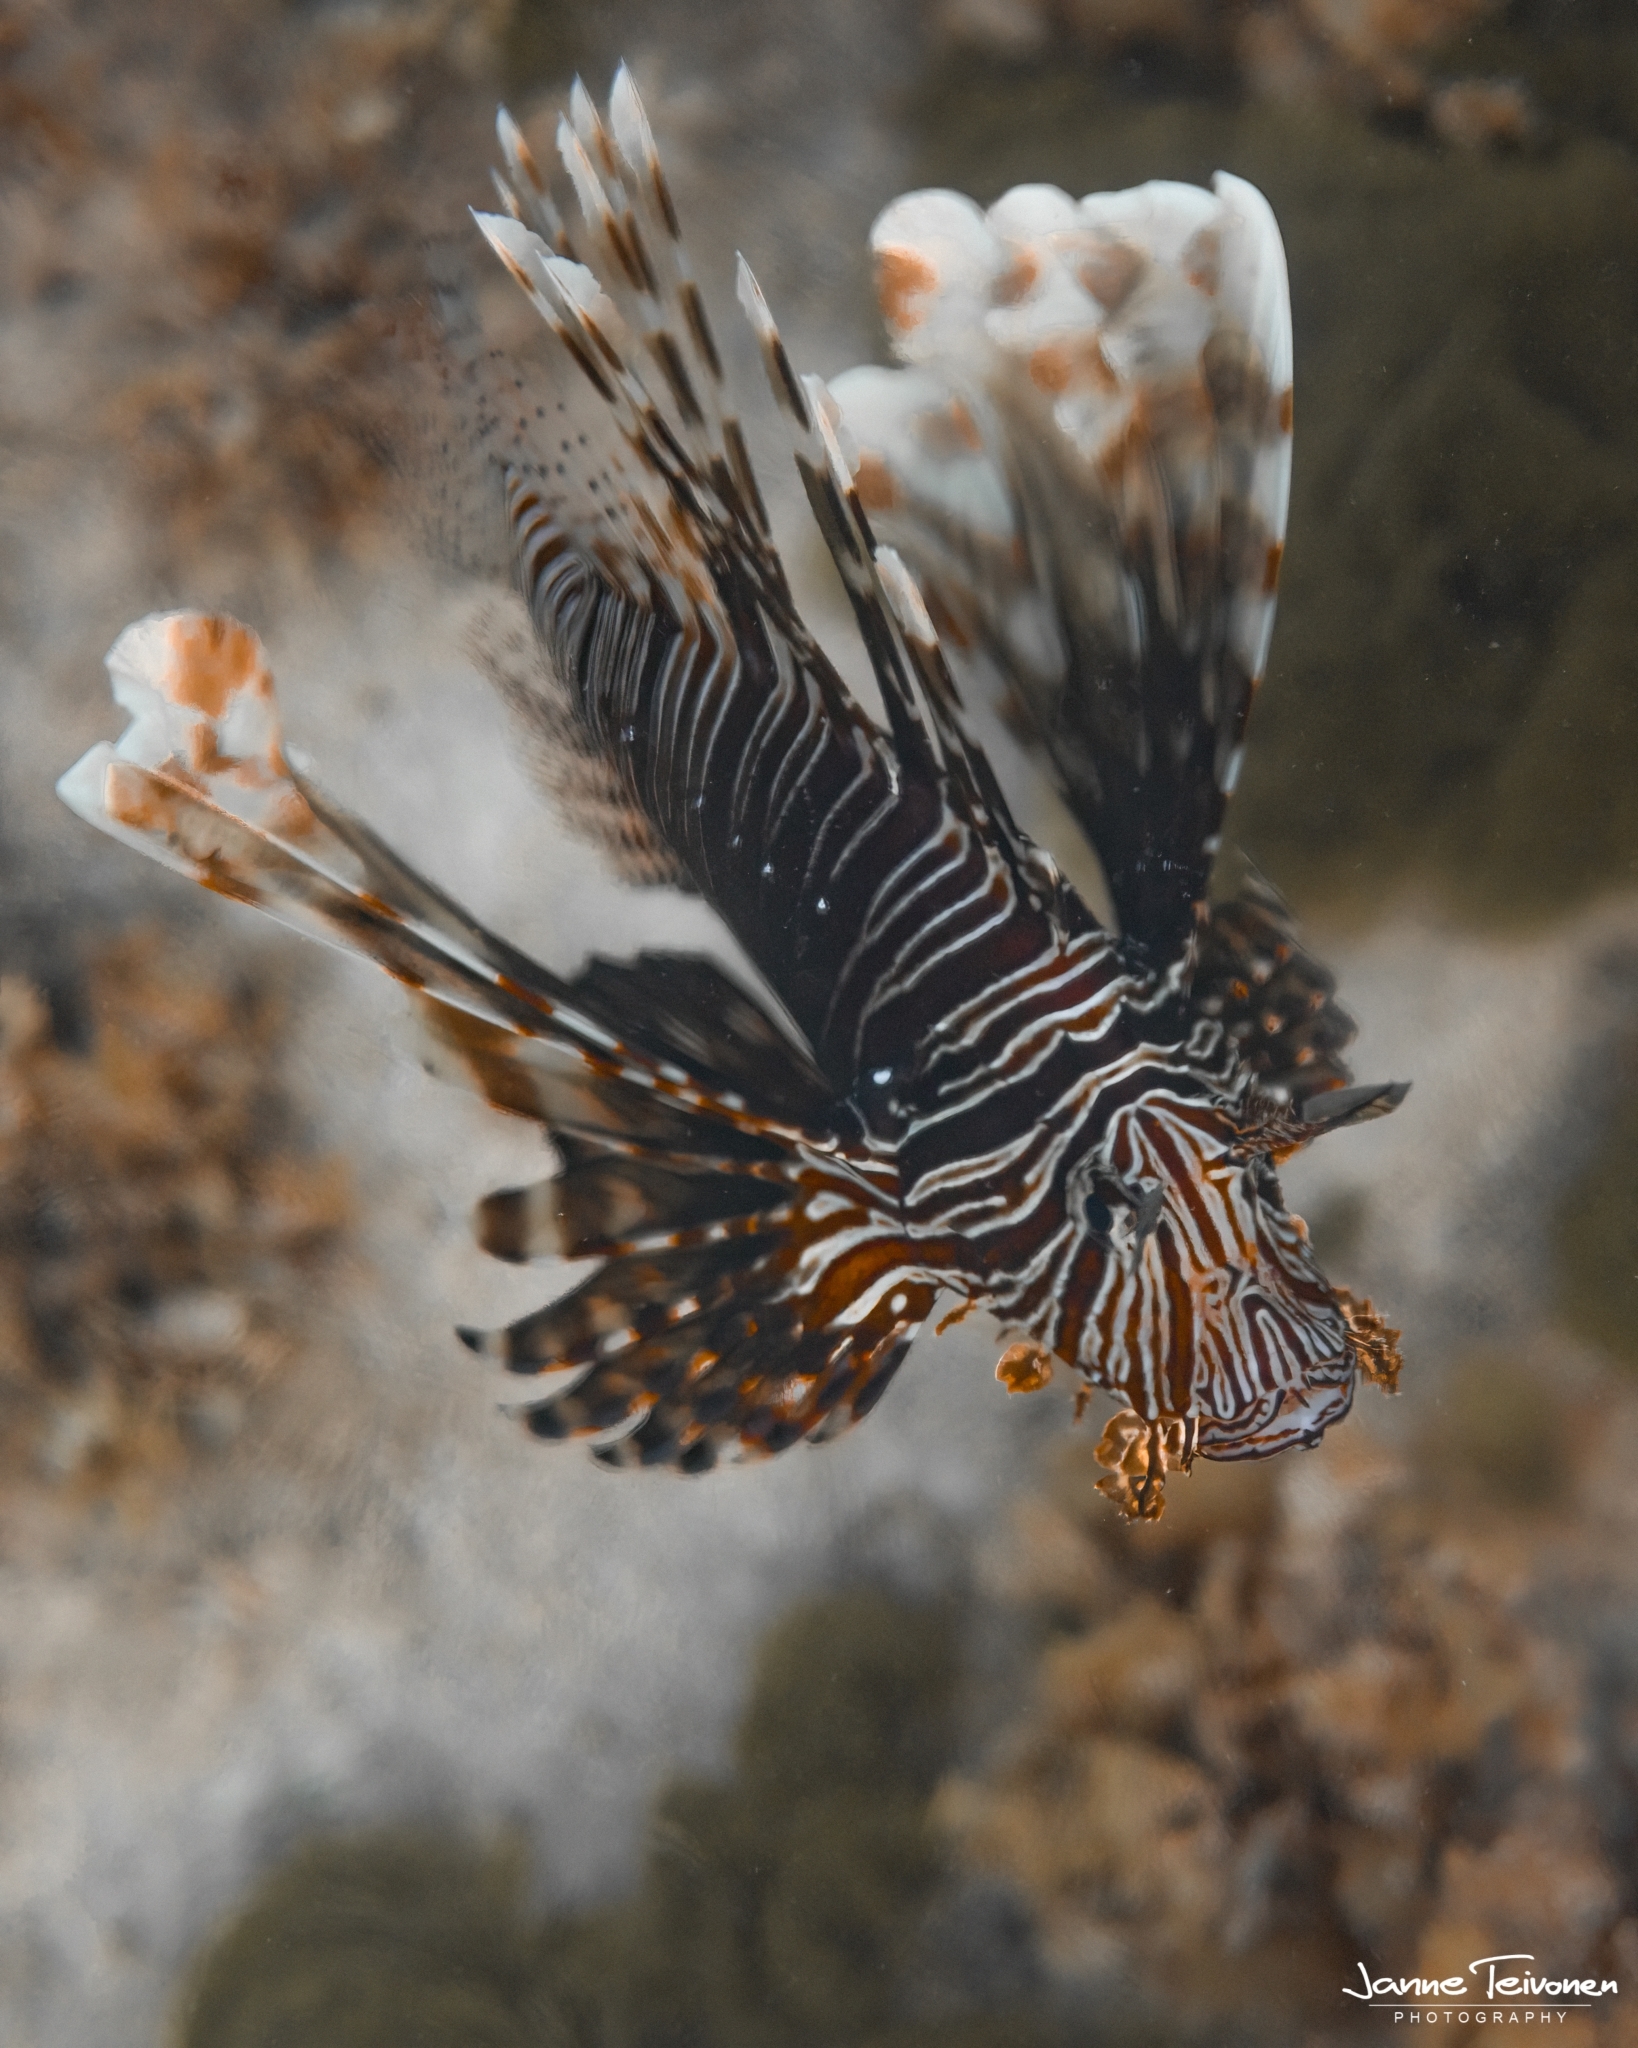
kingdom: Animalia
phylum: Chordata
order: Scorpaeniformes
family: Scorpaenidae
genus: Pterois
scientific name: Pterois miles
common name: Devil firefish
